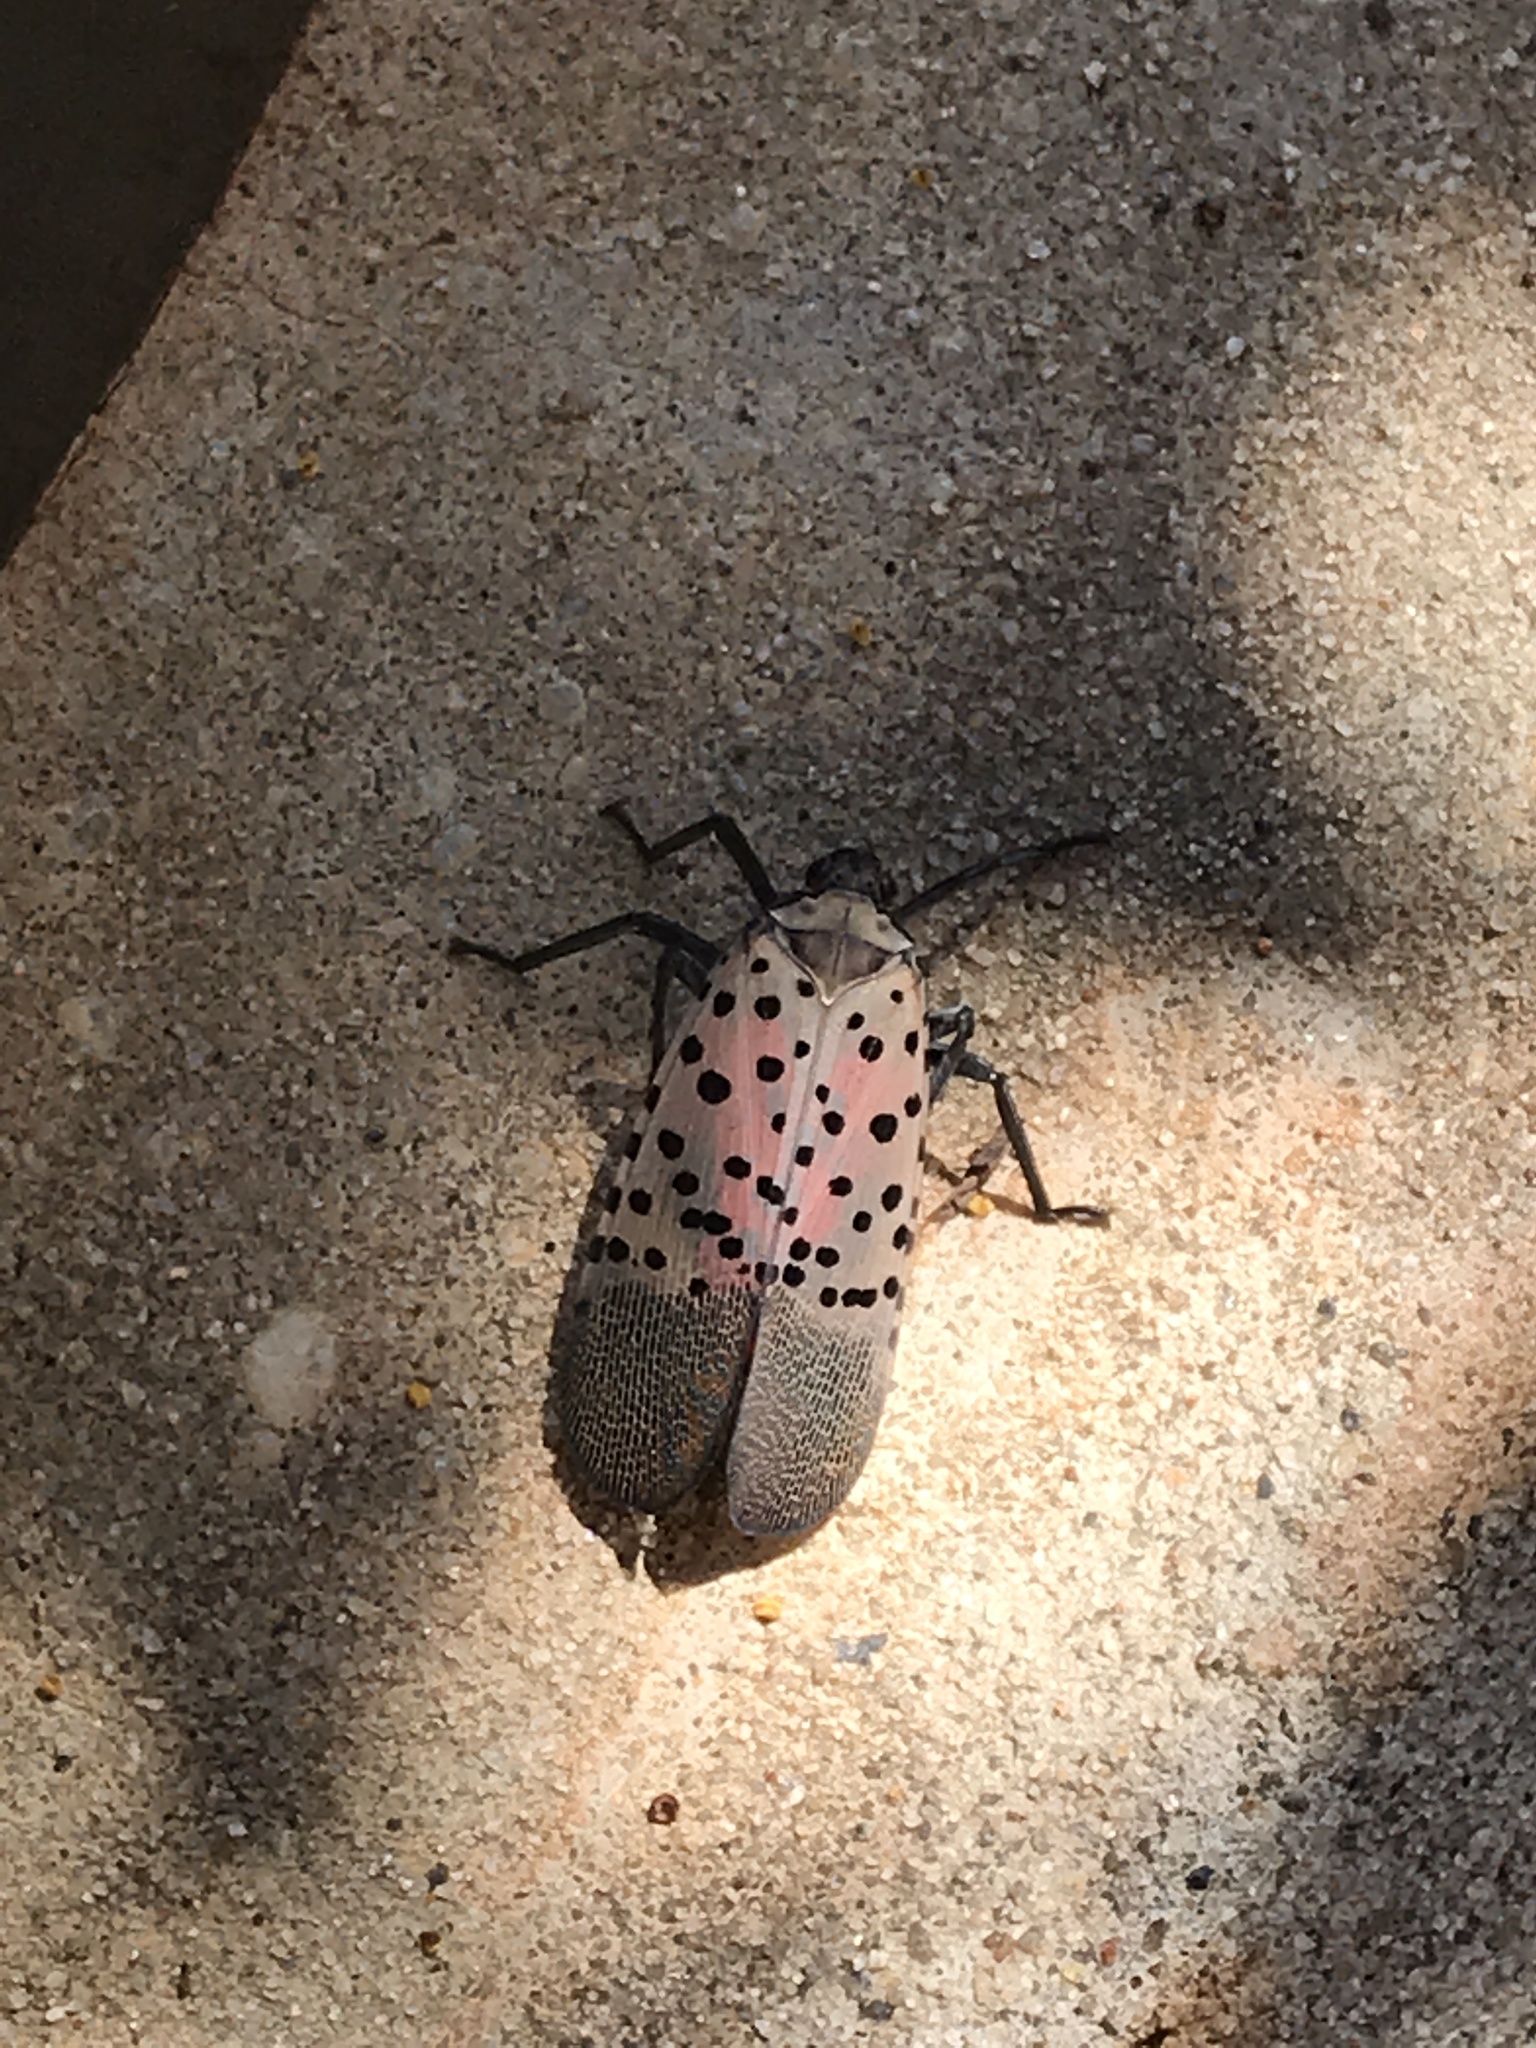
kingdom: Animalia
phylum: Arthropoda
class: Insecta
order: Hemiptera
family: Fulgoridae
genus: Lycorma
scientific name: Lycorma delicatula
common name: Spotted lanternfly
